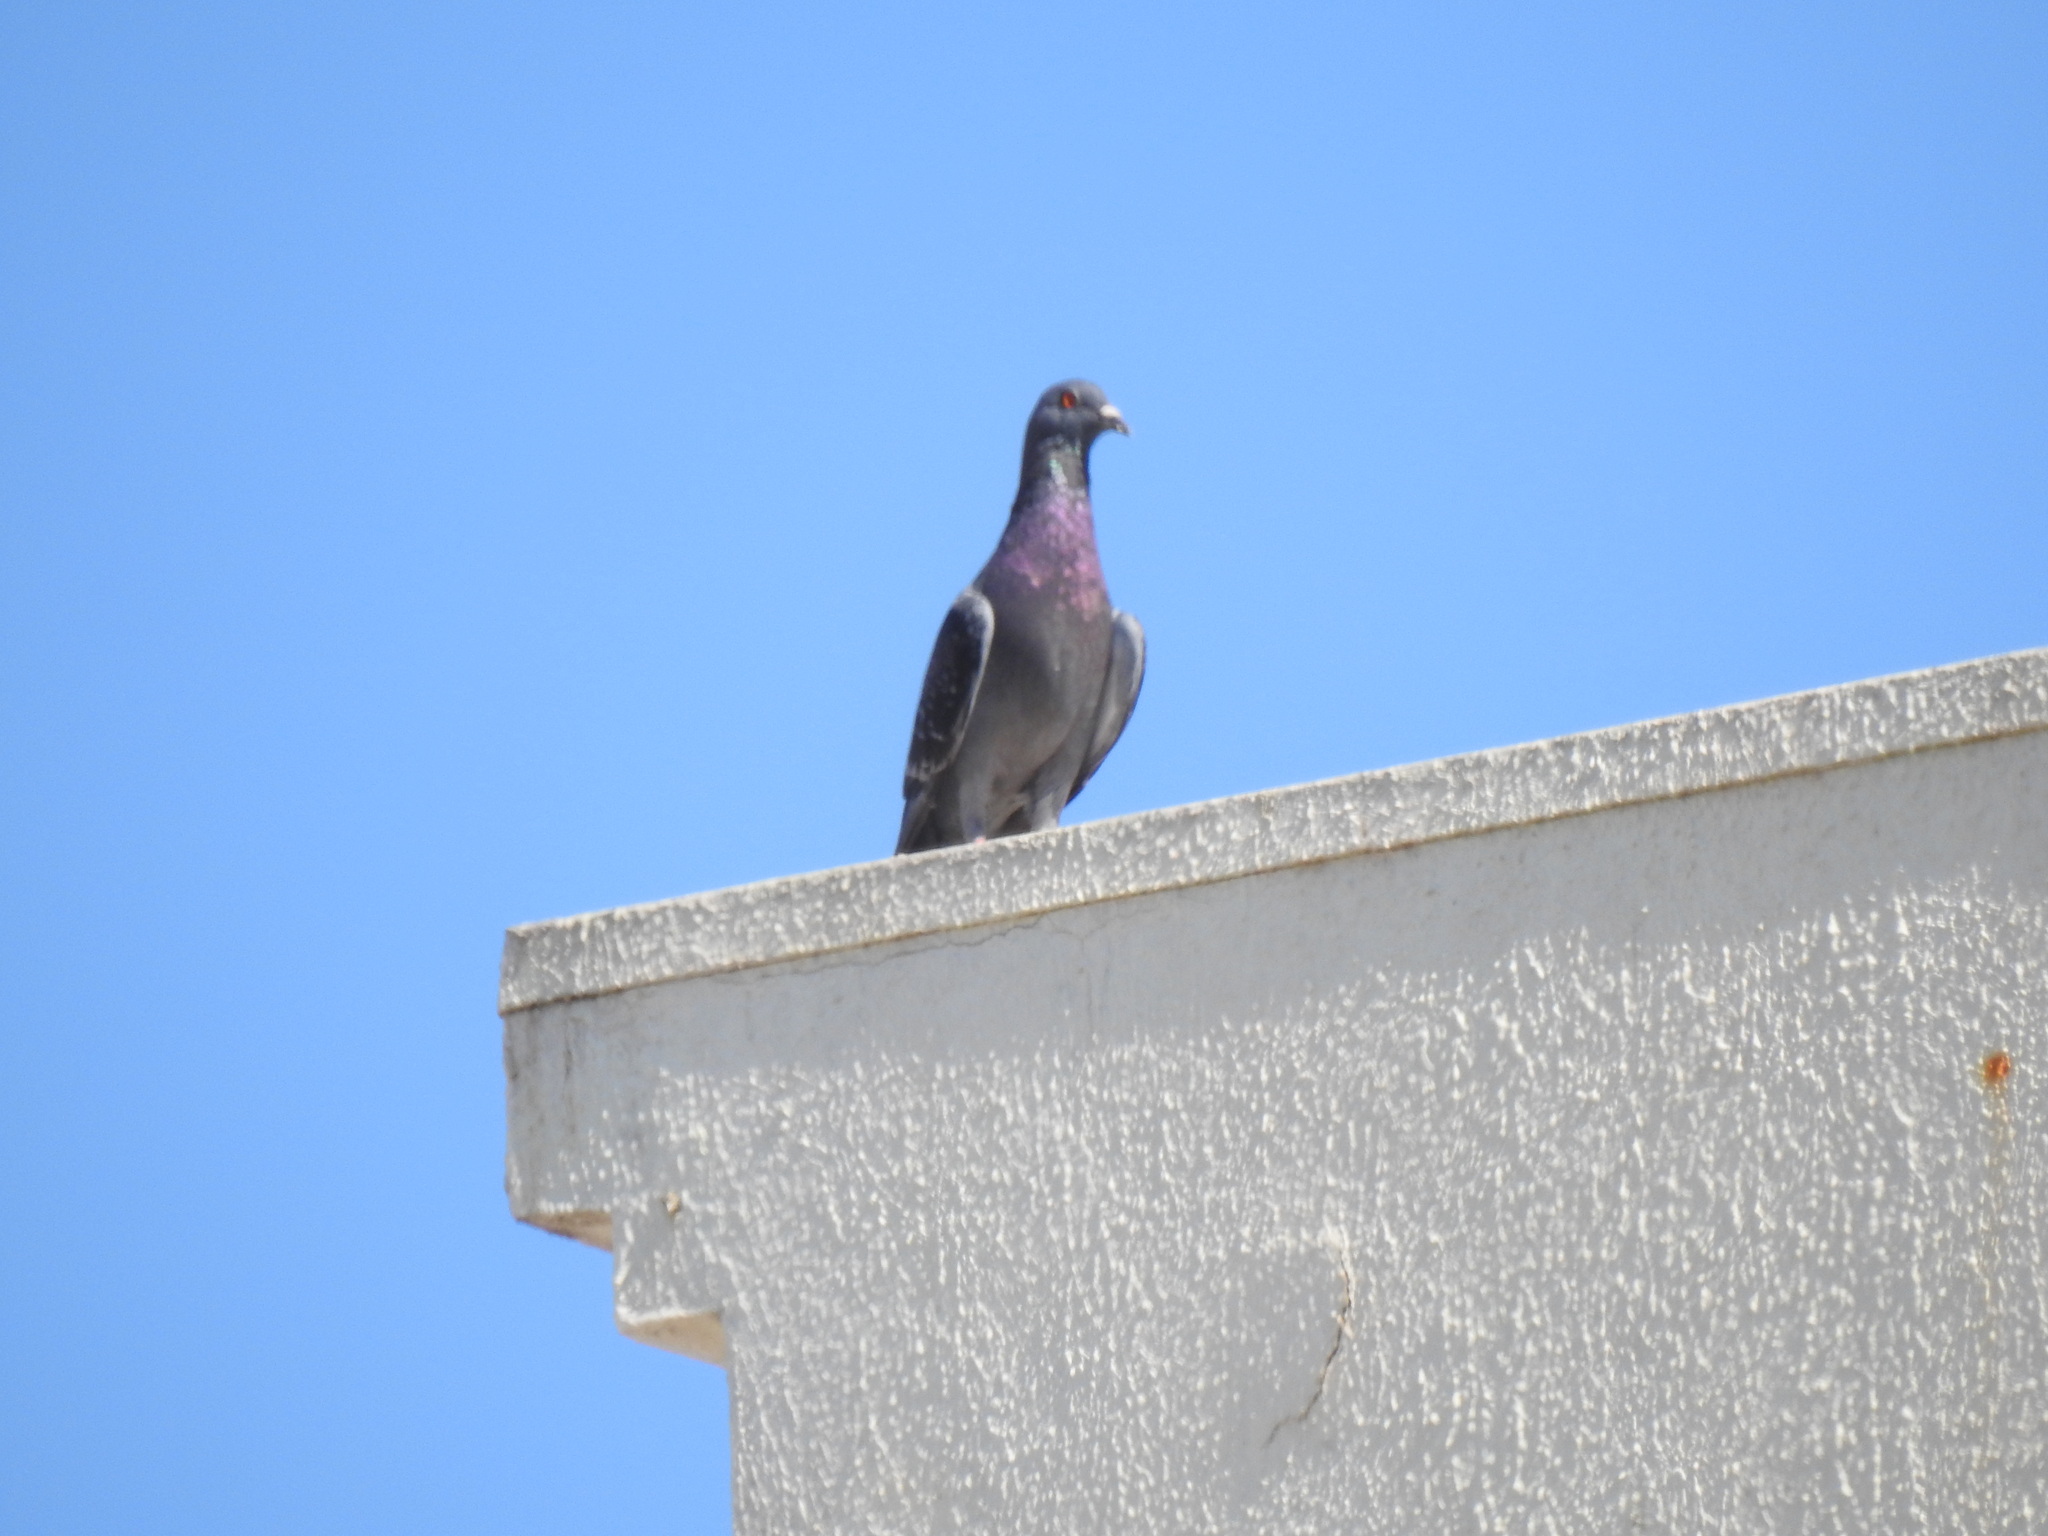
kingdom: Animalia
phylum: Chordata
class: Aves
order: Columbiformes
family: Columbidae
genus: Columba
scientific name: Columba livia
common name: Rock pigeon
